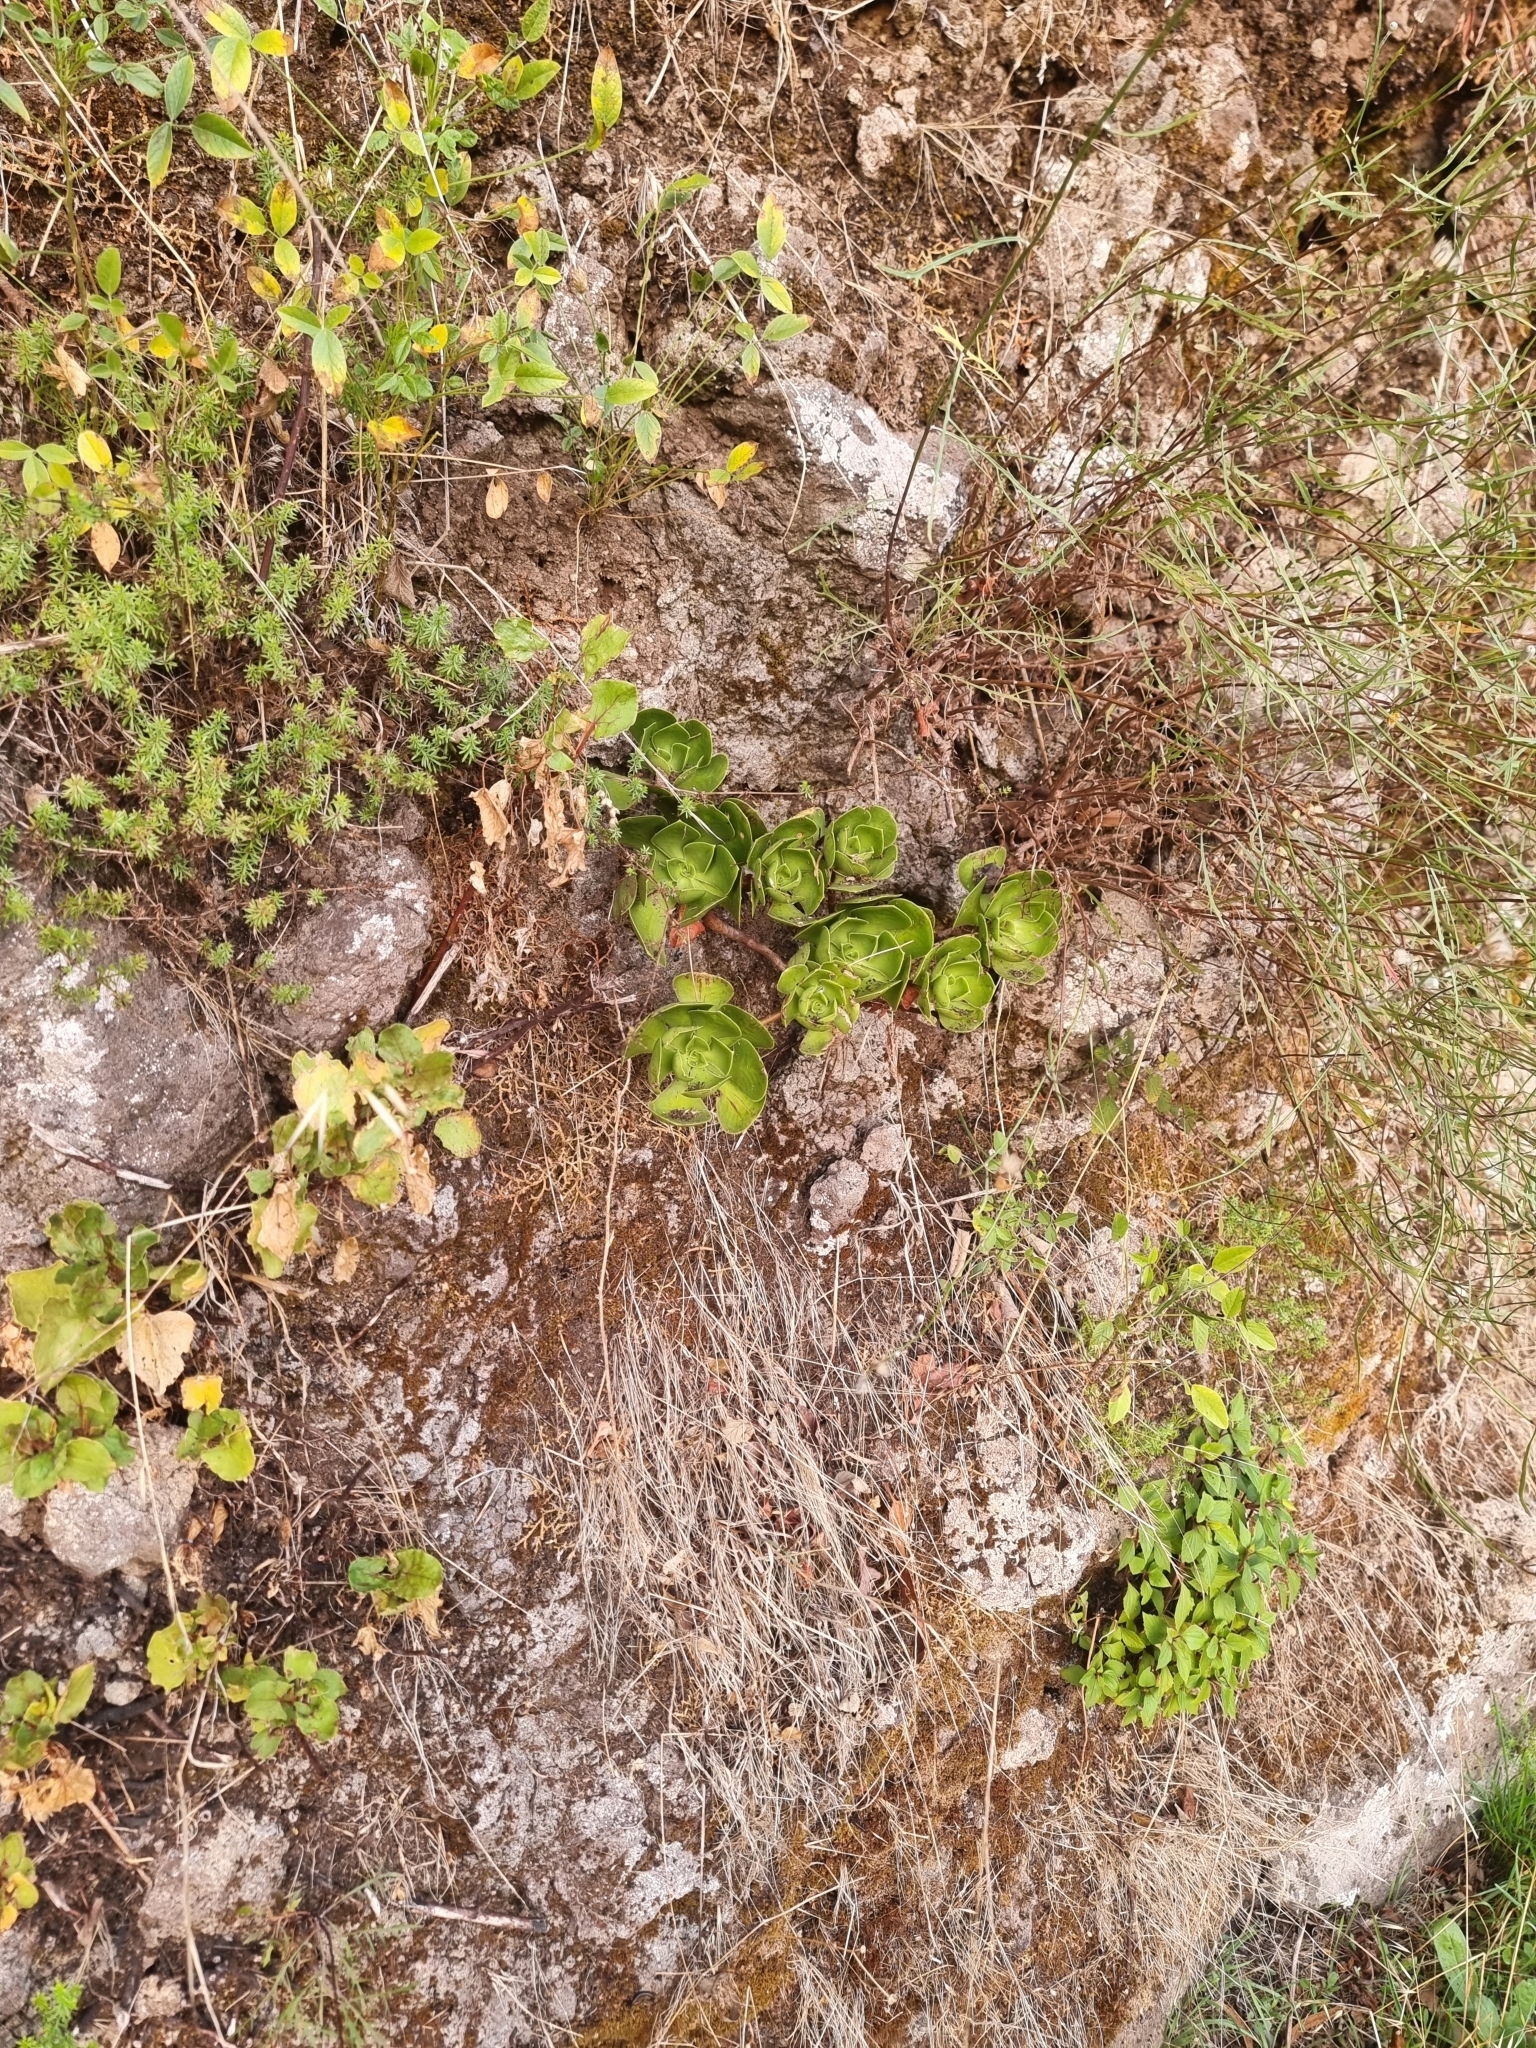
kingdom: Plantae
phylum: Tracheophyta
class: Magnoliopsida
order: Saxifragales
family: Crassulaceae
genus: Aeonium
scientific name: Aeonium glutinosum
